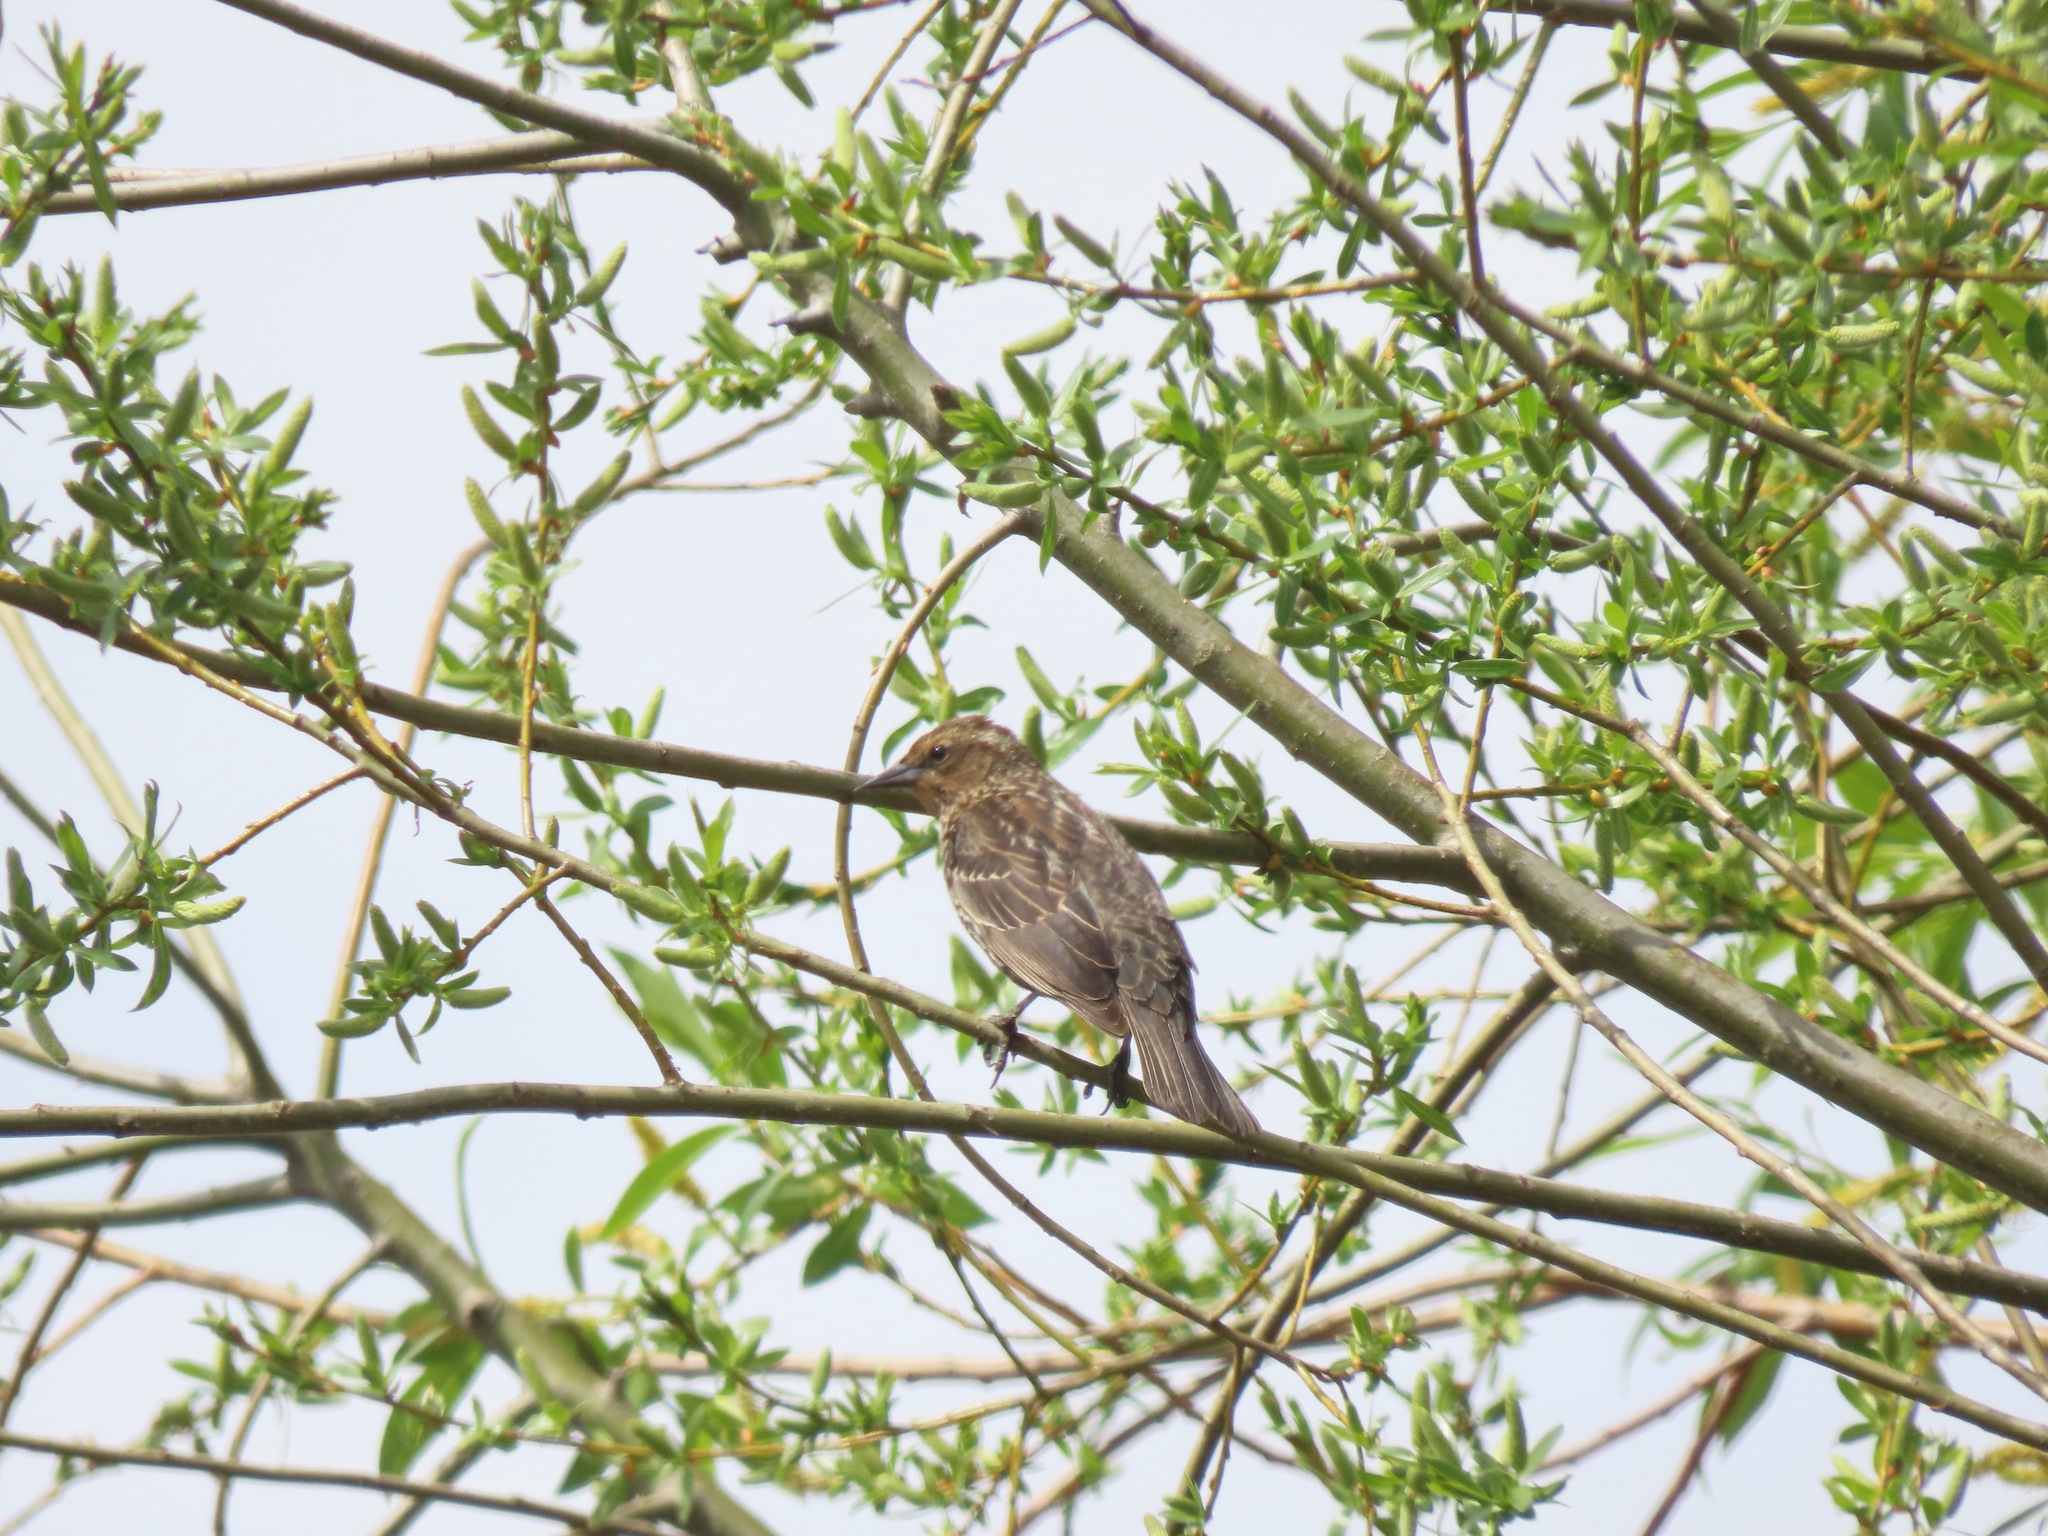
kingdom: Animalia
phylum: Chordata
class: Aves
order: Passeriformes
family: Icteridae
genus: Agelaius
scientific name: Agelaius phoeniceus
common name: Red-winged blackbird
